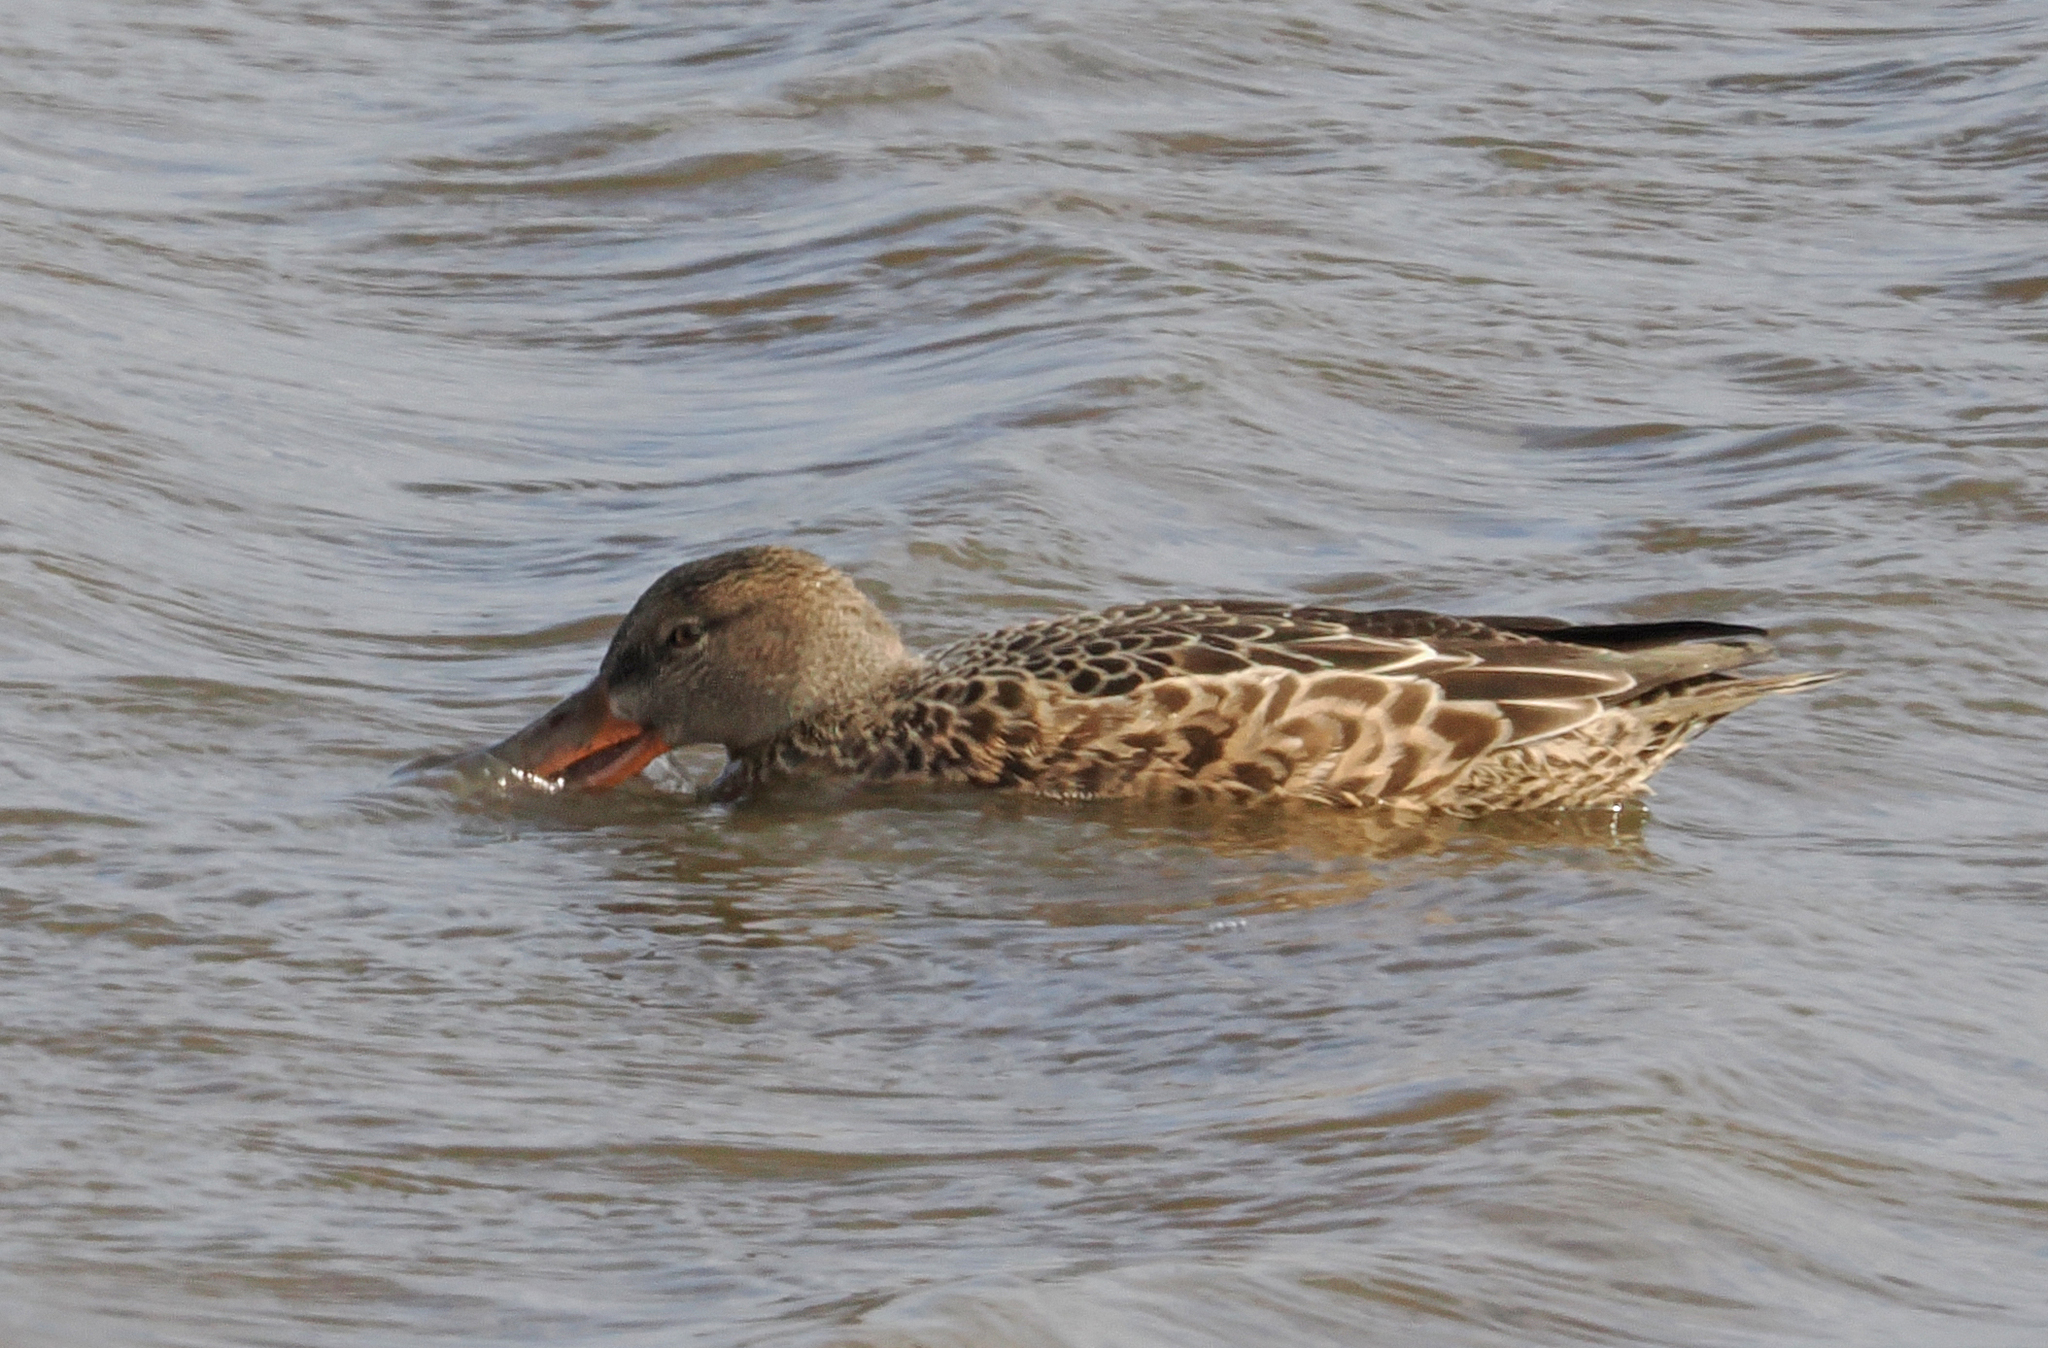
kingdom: Animalia
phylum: Chordata
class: Aves
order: Anseriformes
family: Anatidae
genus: Spatula
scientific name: Spatula clypeata
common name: Northern shoveler
